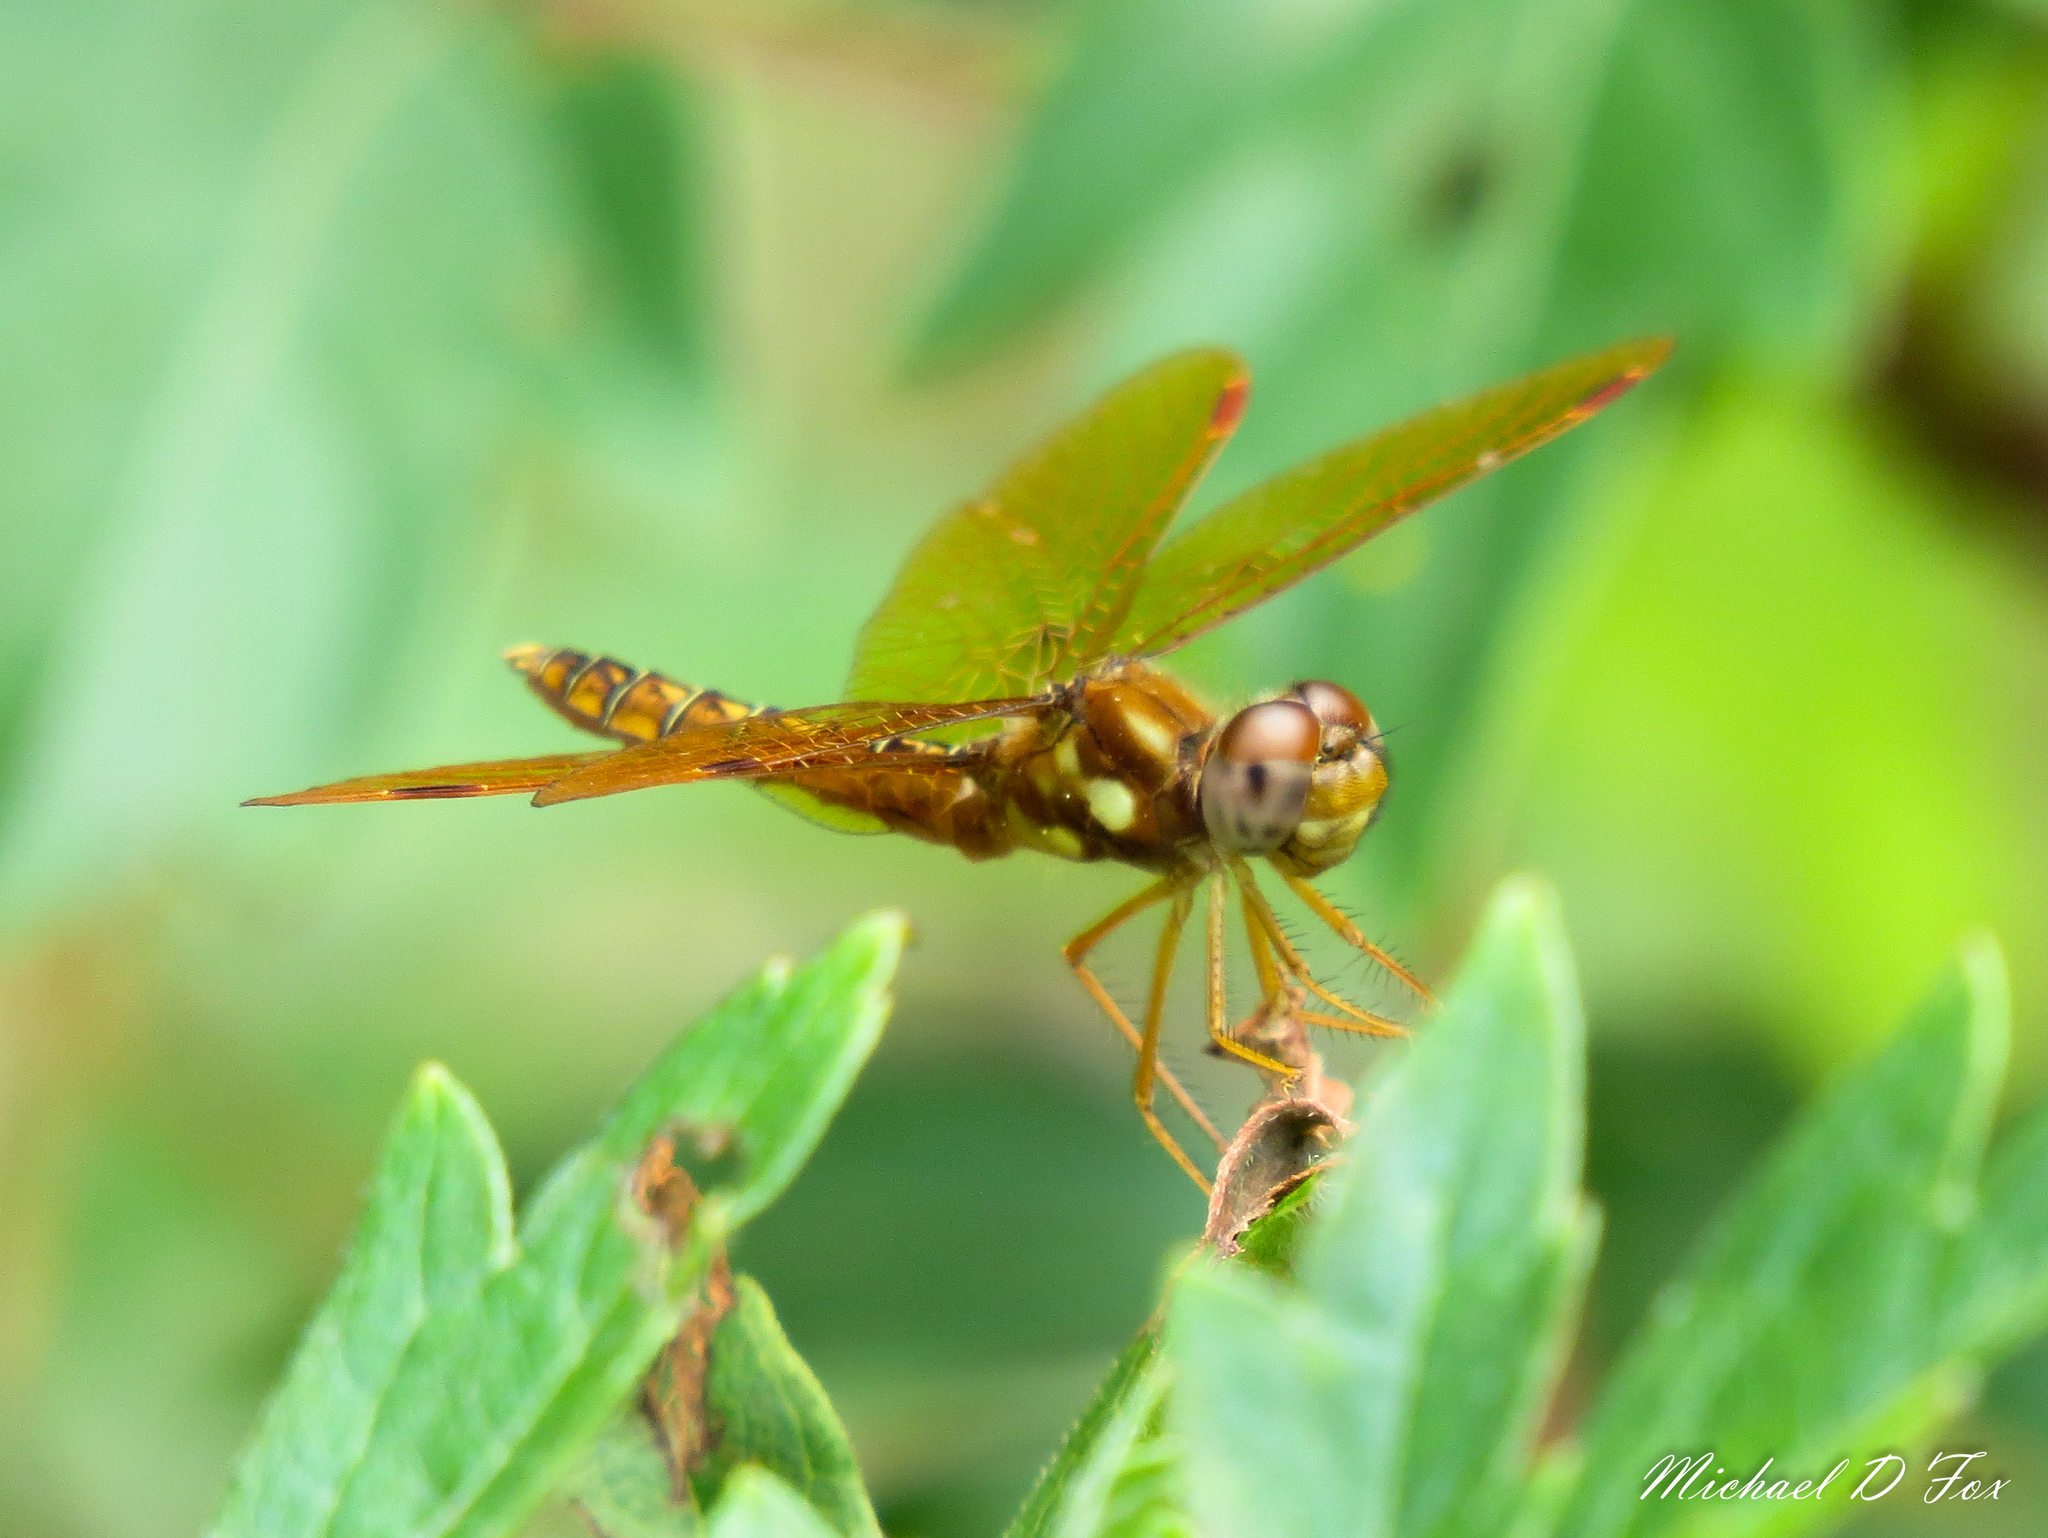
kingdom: Animalia
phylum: Arthropoda
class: Insecta
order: Odonata
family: Libellulidae
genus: Perithemis
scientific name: Perithemis tenera
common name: Eastern amberwing
